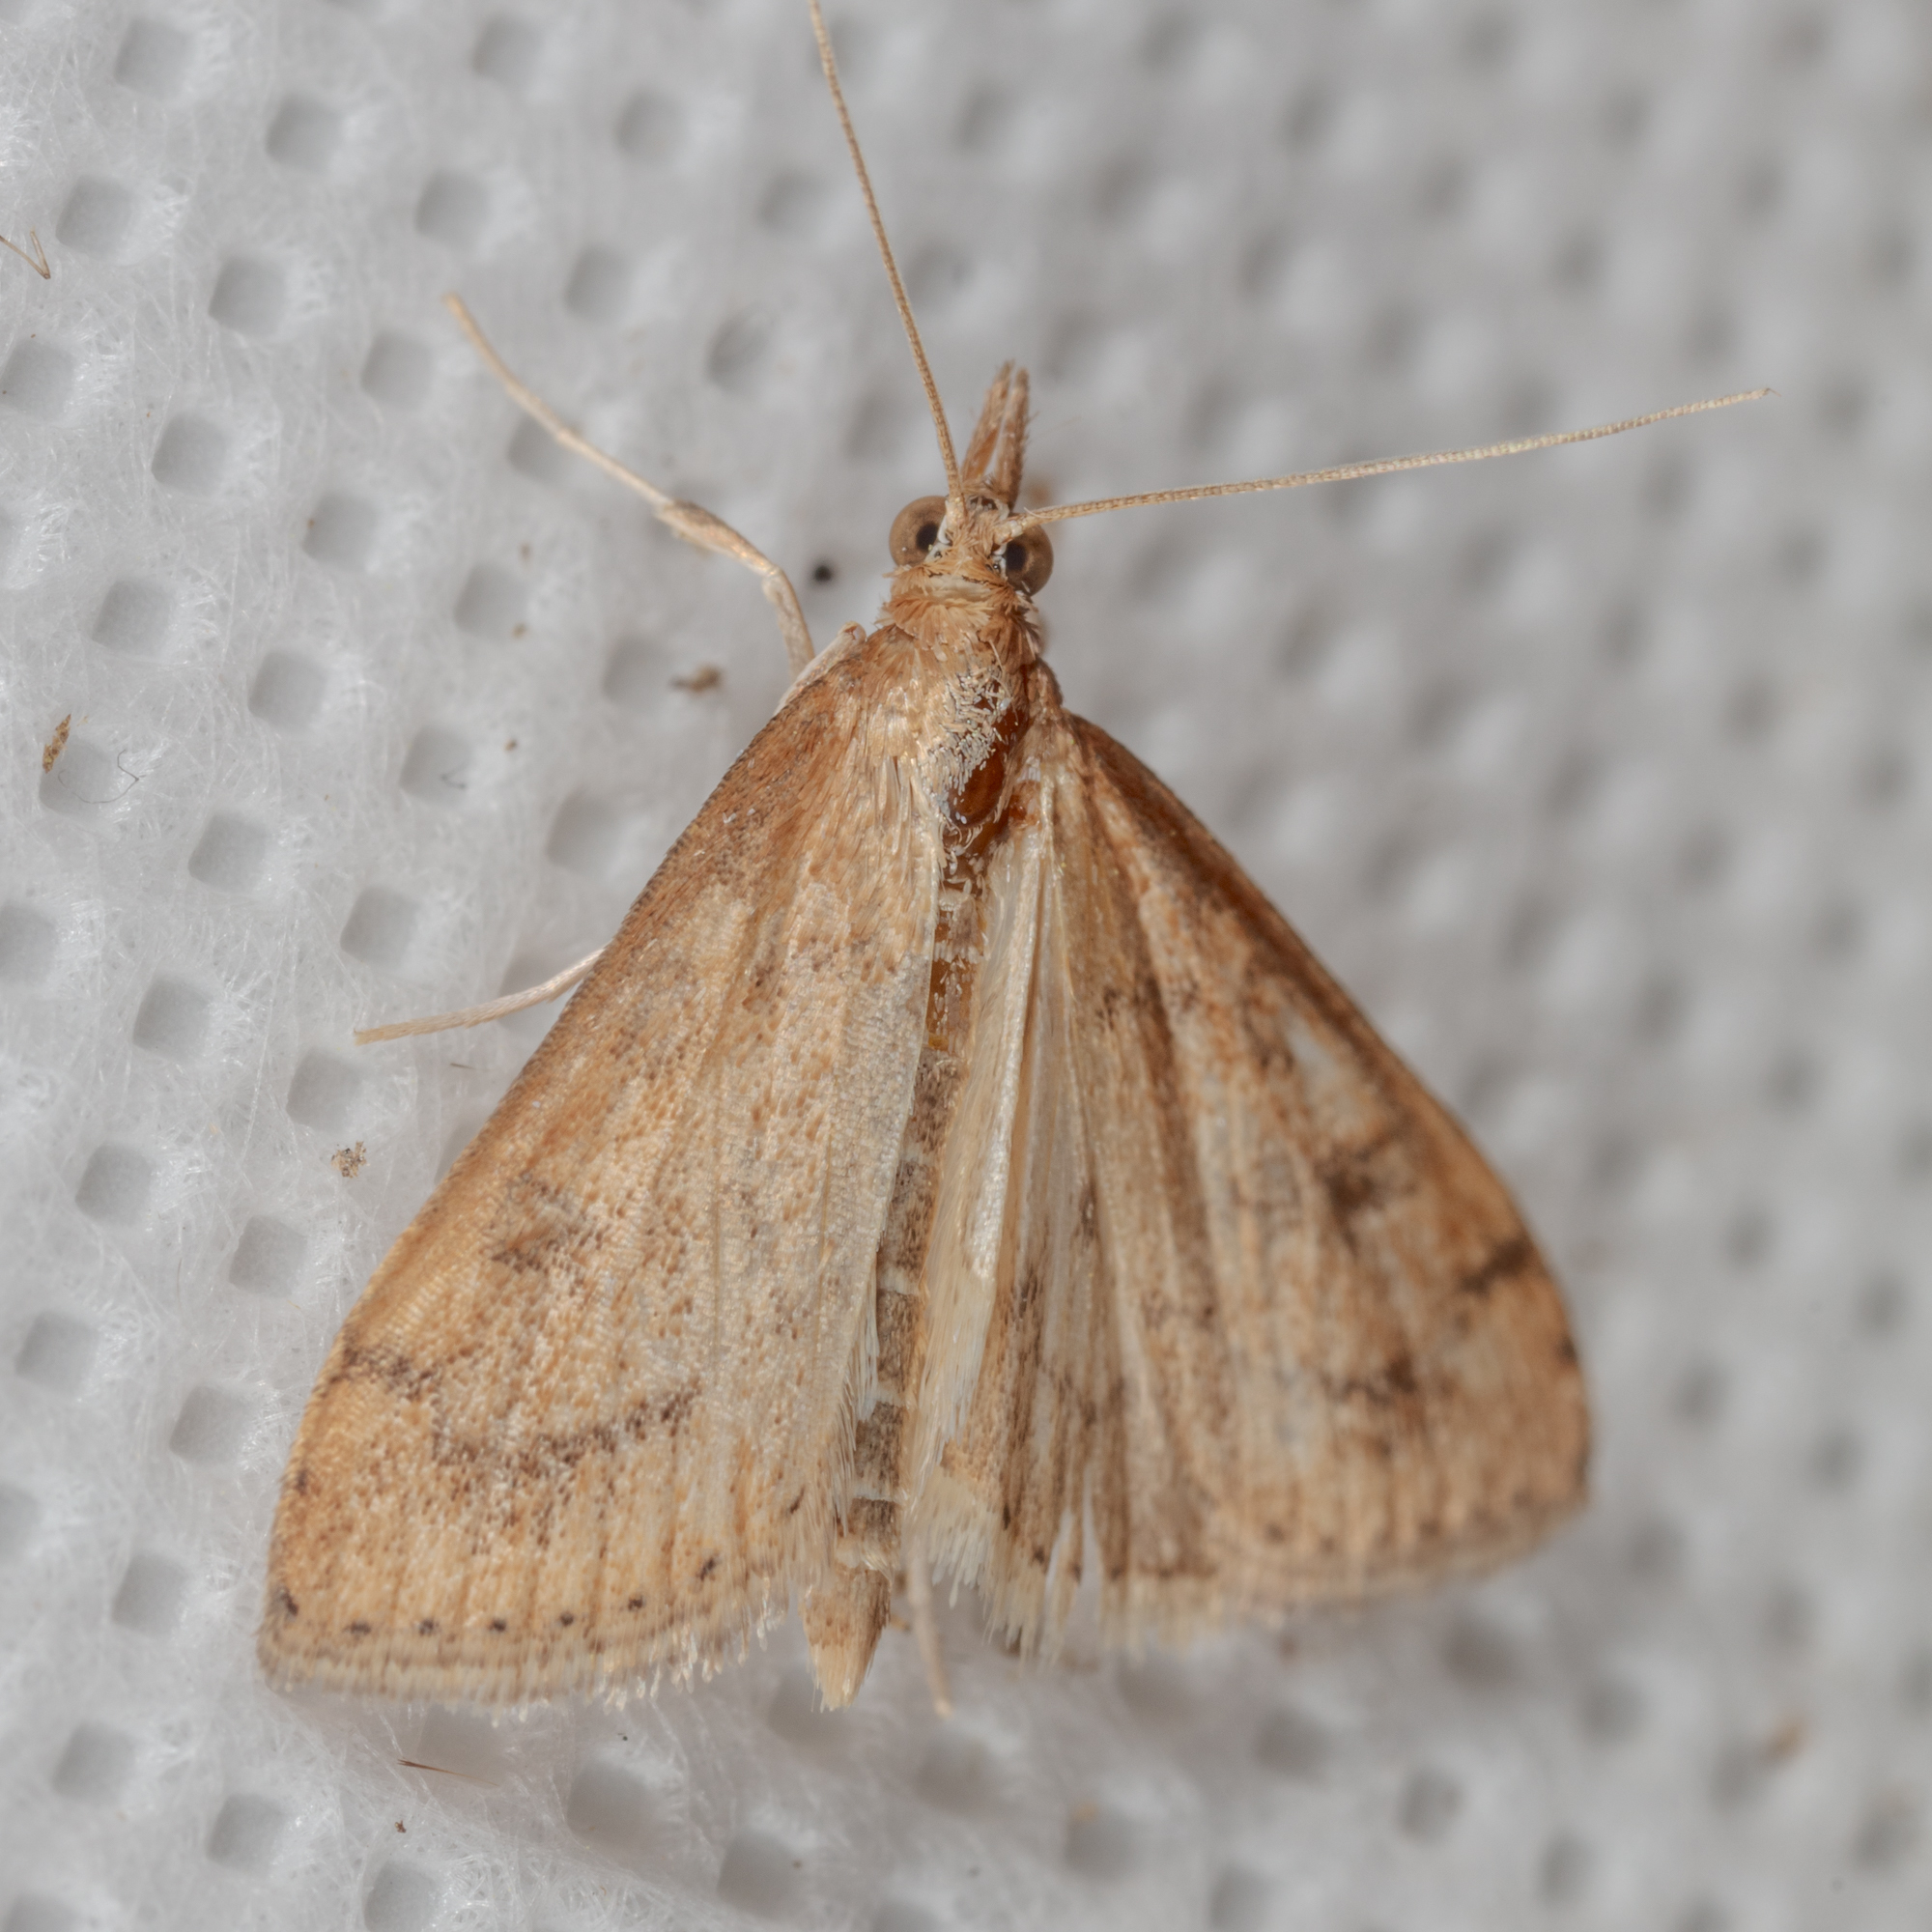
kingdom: Animalia
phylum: Arthropoda
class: Insecta
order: Lepidoptera
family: Crambidae
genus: Udea
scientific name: Udea rubigalis
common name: Celery leaftier moth
